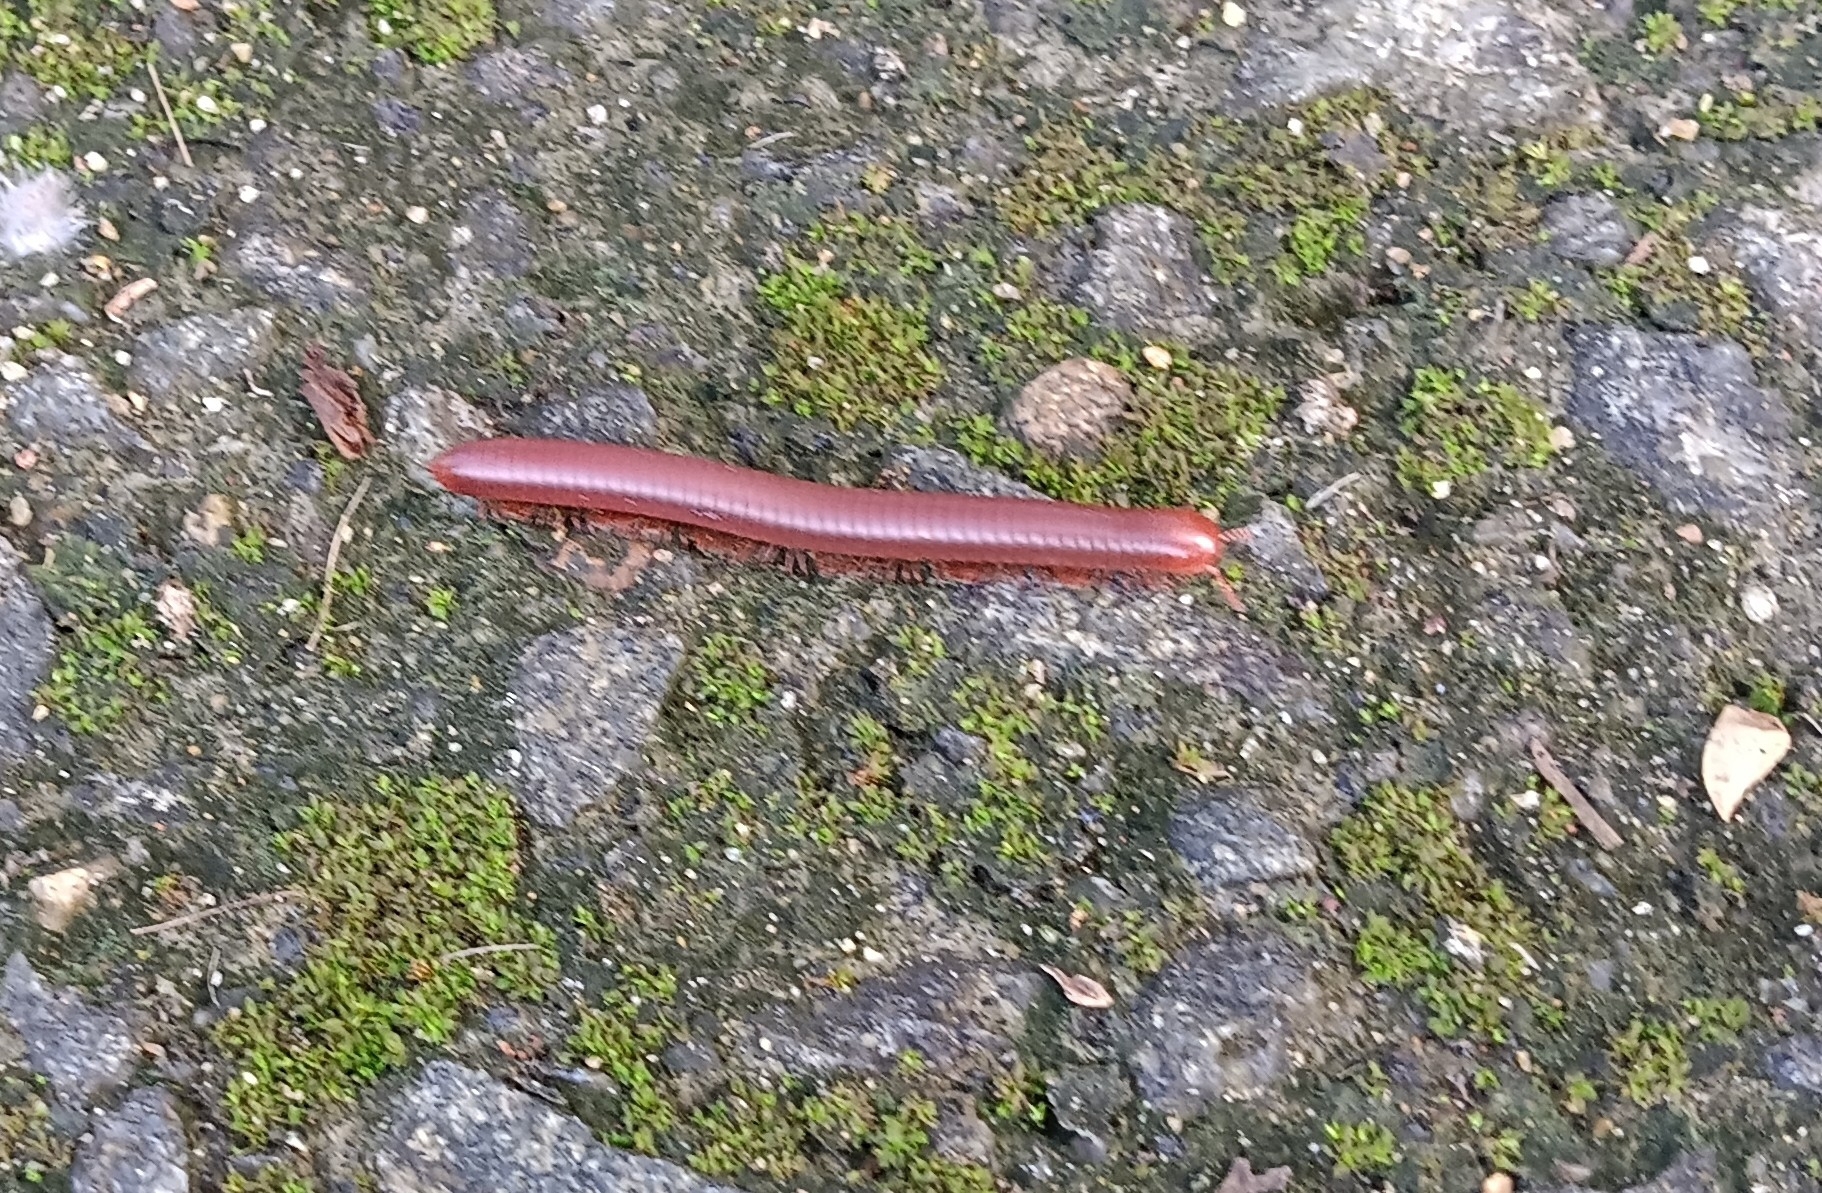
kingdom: Animalia
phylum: Arthropoda
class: Diplopoda
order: Spirobolida
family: Pachybolidae
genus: Trigoniulus
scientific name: Trigoniulus corallinus
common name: Millipede
